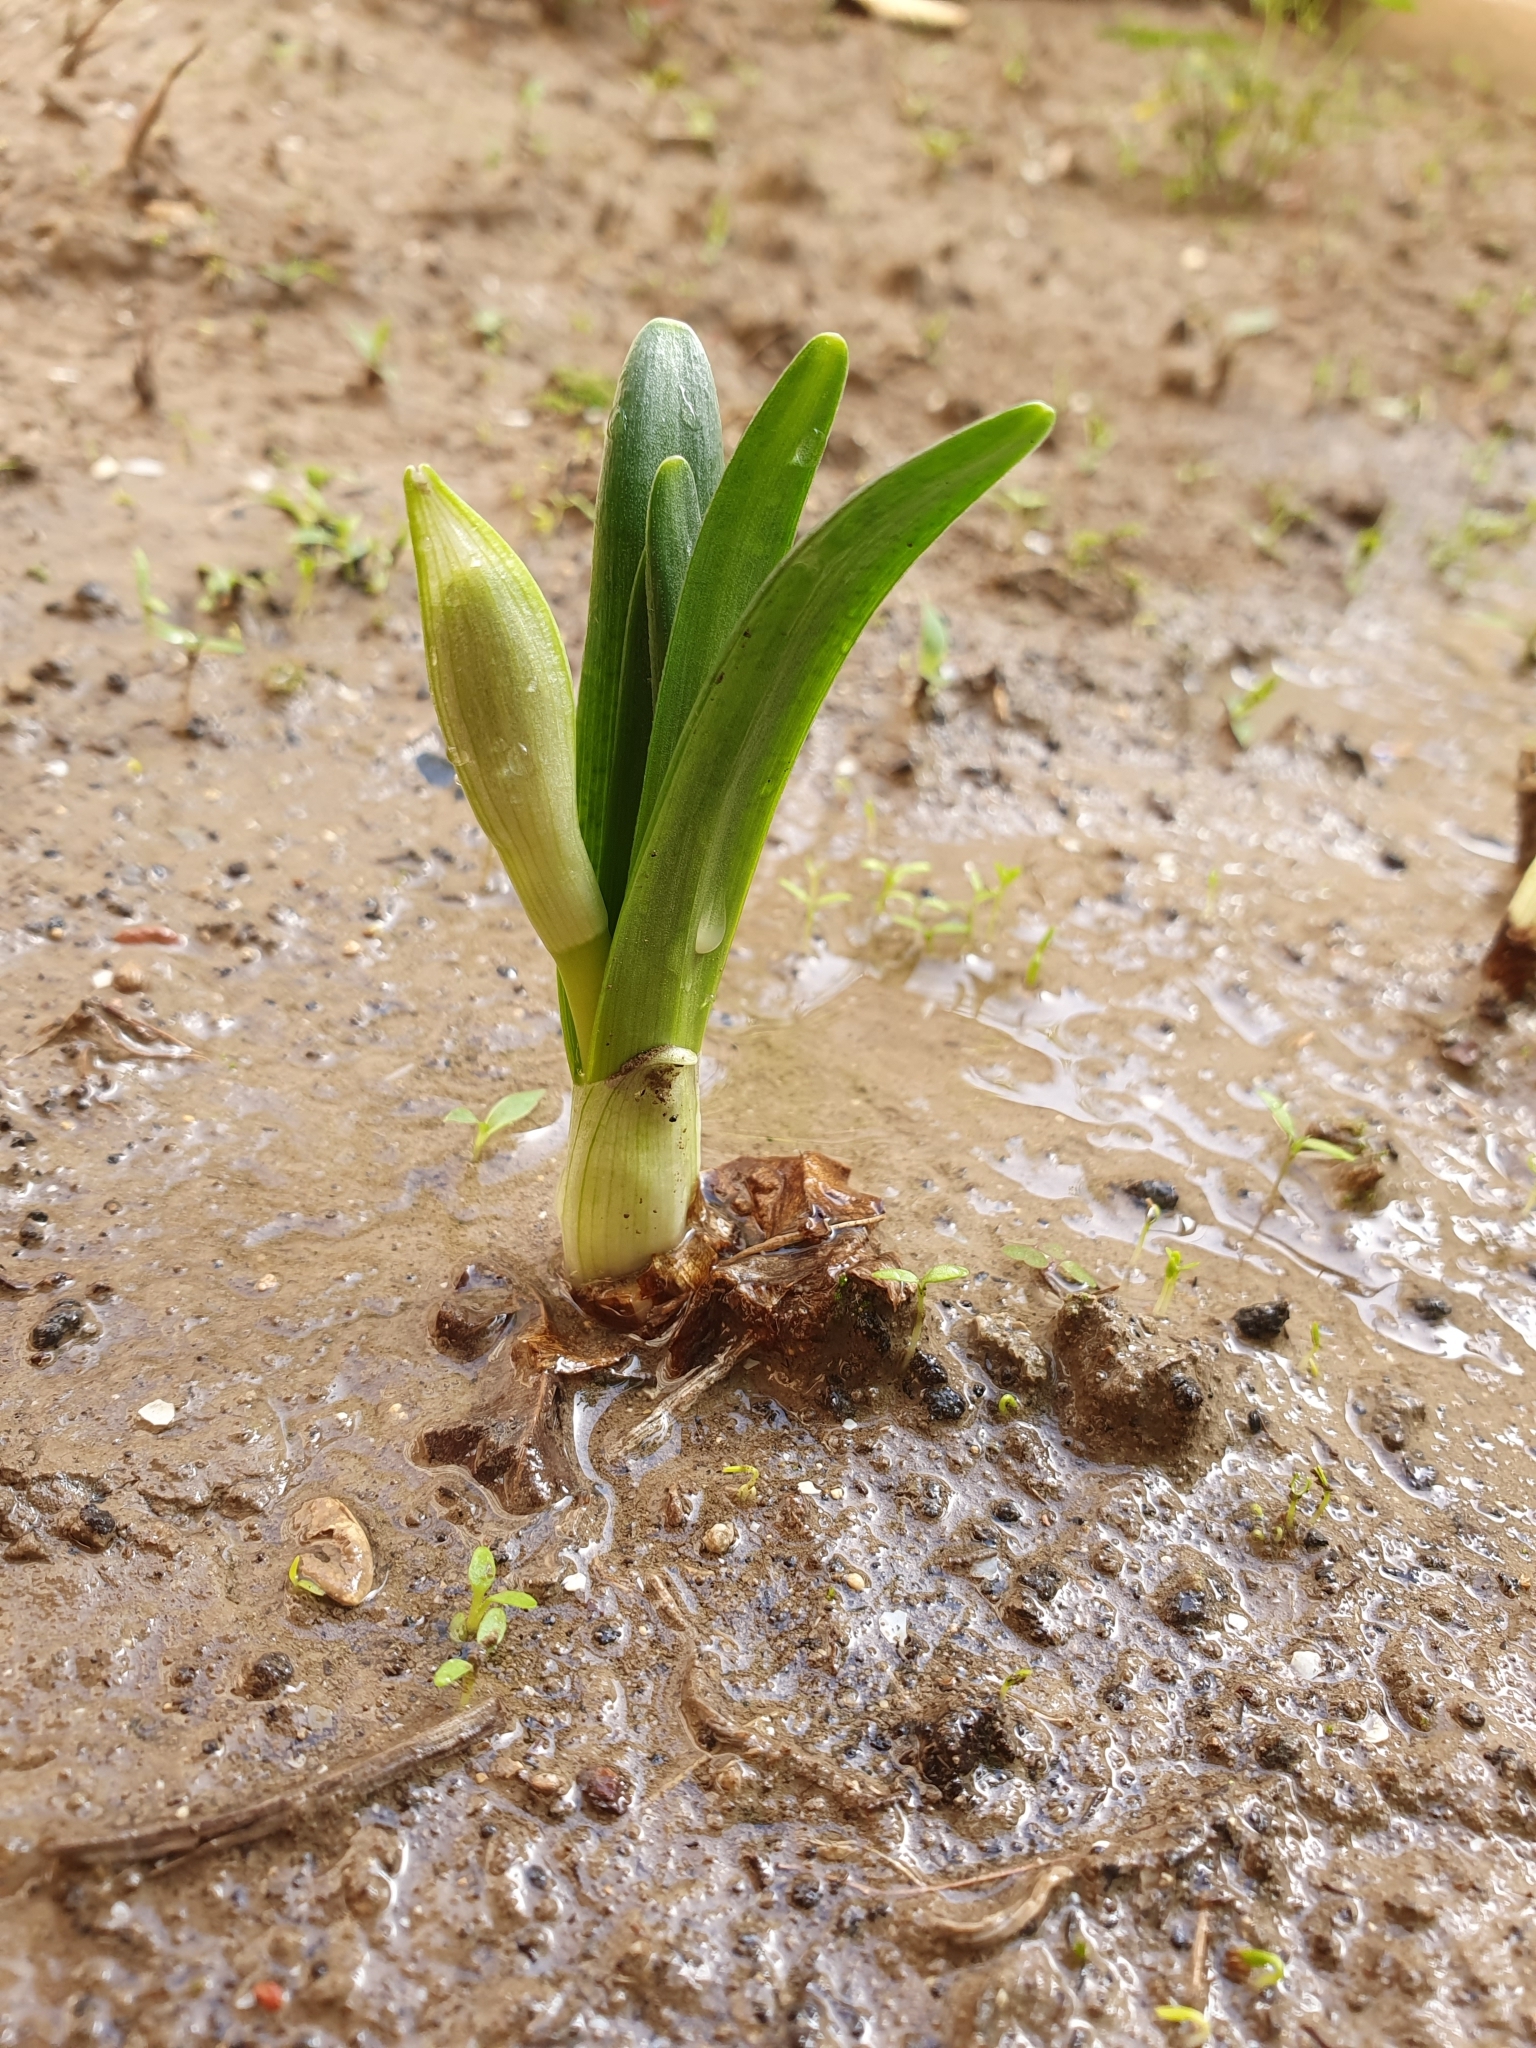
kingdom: Plantae
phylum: Tracheophyta
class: Liliopsida
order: Asparagales
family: Amaryllidaceae
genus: Sternbergia
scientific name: Sternbergia lutea
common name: Winter daffodil
